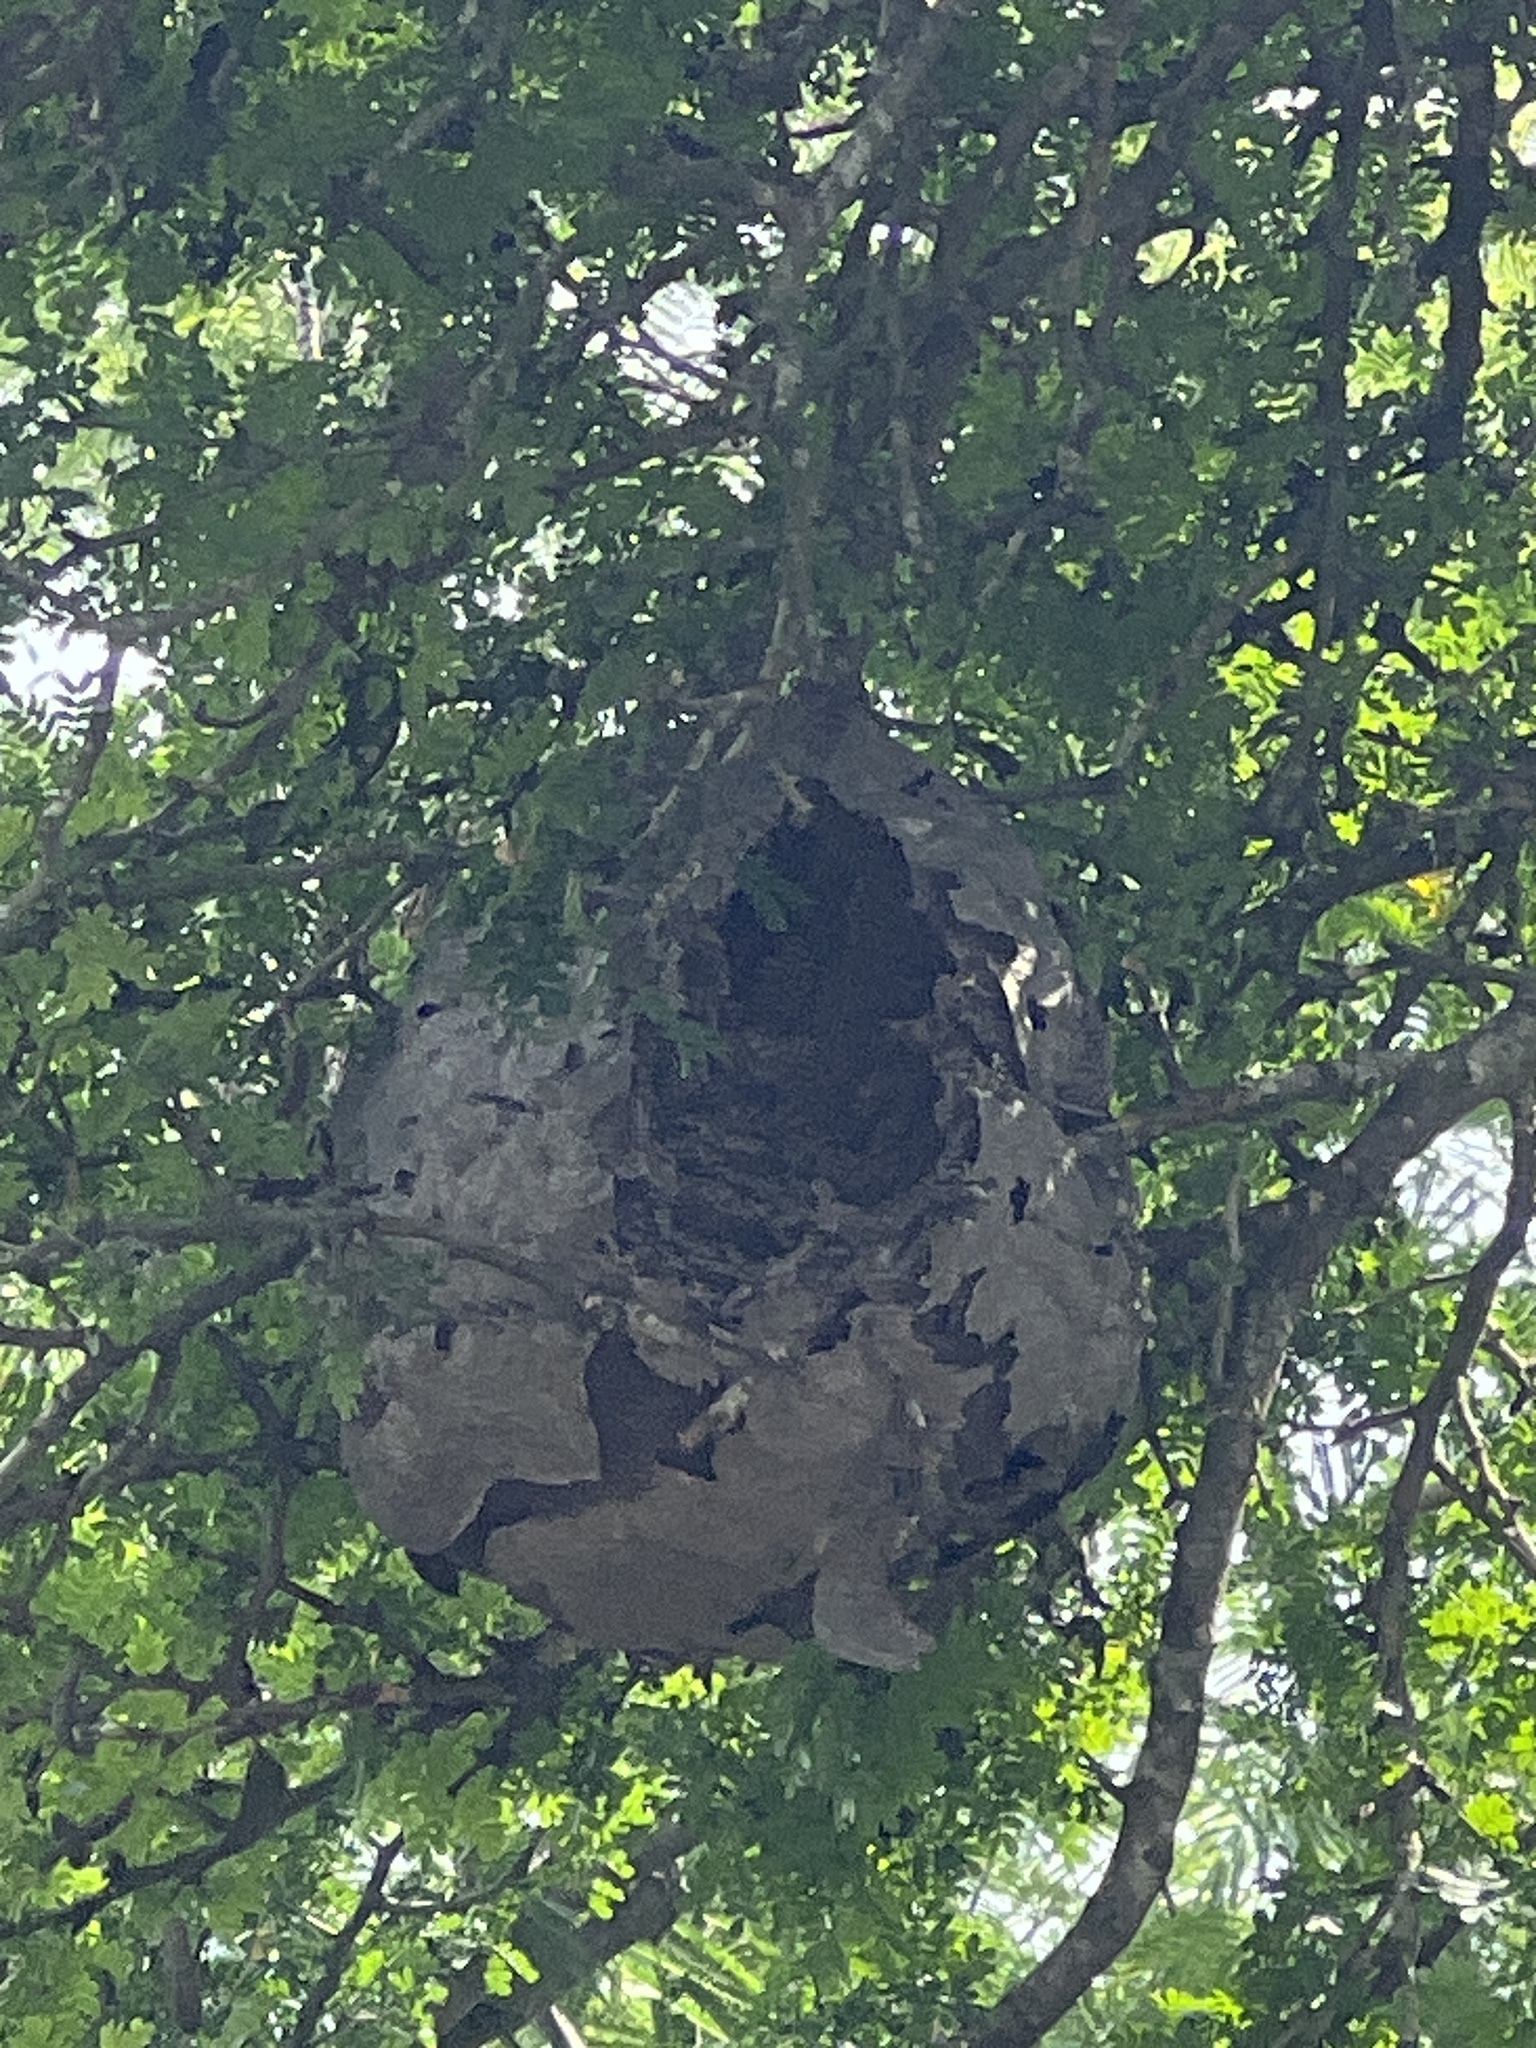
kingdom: Animalia
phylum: Arthropoda
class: Insecta
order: Hymenoptera
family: Vespidae
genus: Brachygastra
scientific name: Brachygastra mellifica
